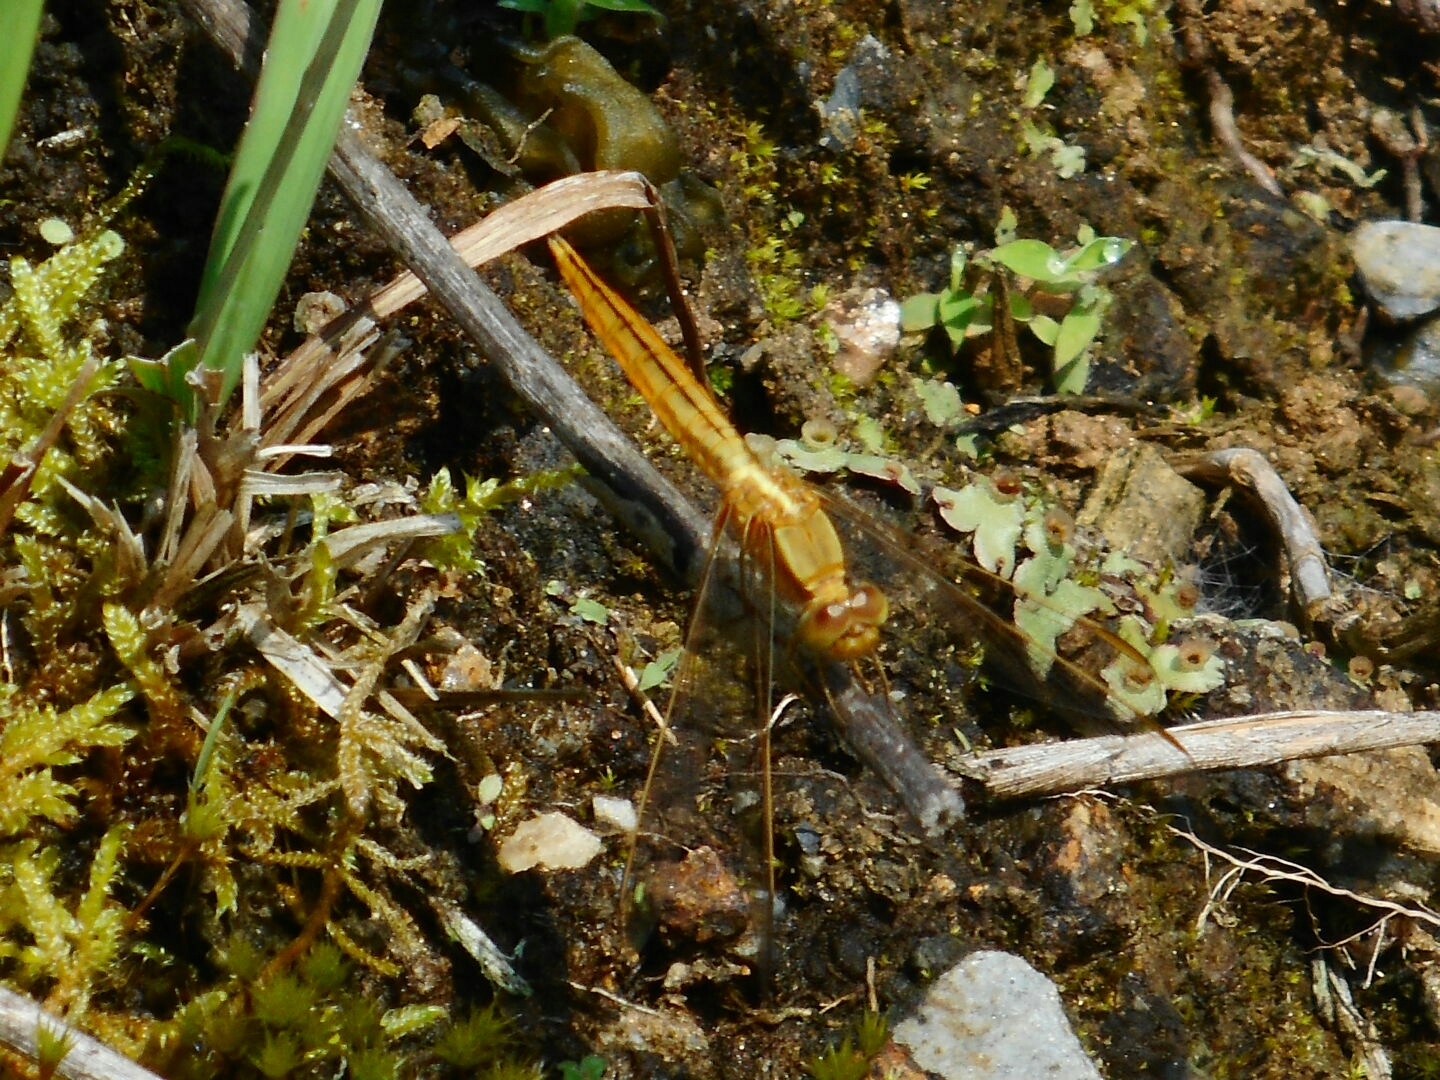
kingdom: Animalia
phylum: Arthropoda
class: Insecta
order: Odonata
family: Libellulidae
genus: Crocothemis
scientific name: Crocothemis servilia
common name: Scarlet skimmer
